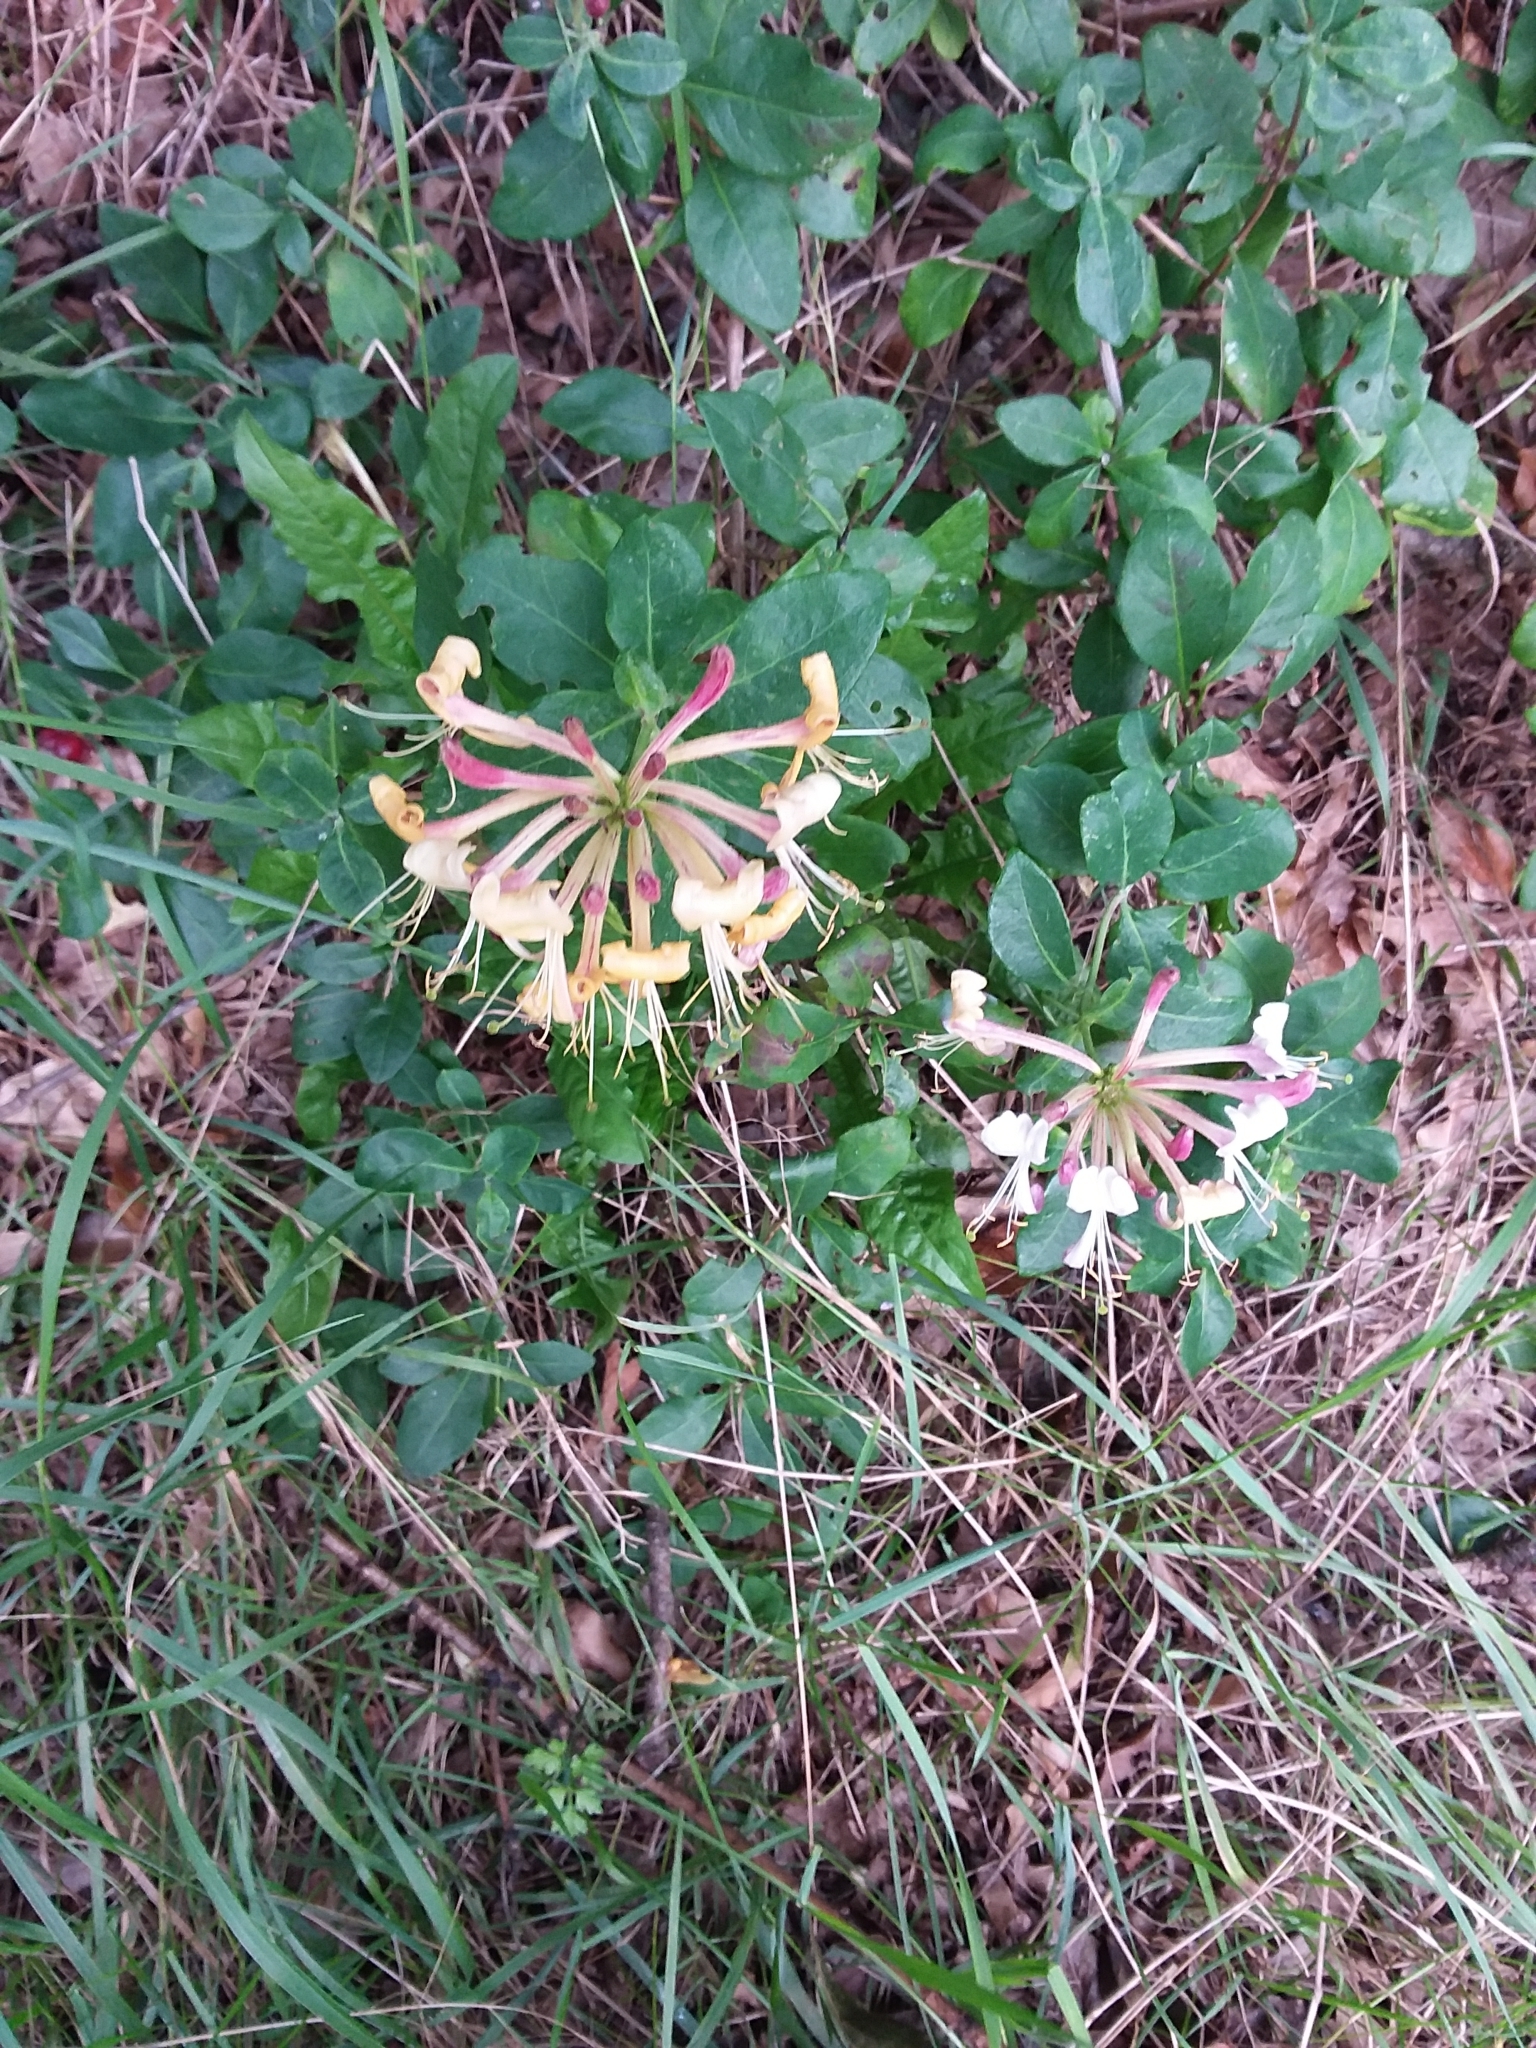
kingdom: Plantae
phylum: Tracheophyta
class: Magnoliopsida
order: Dipsacales
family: Caprifoliaceae
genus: Lonicera
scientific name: Lonicera periclymenum
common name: European honeysuckle
